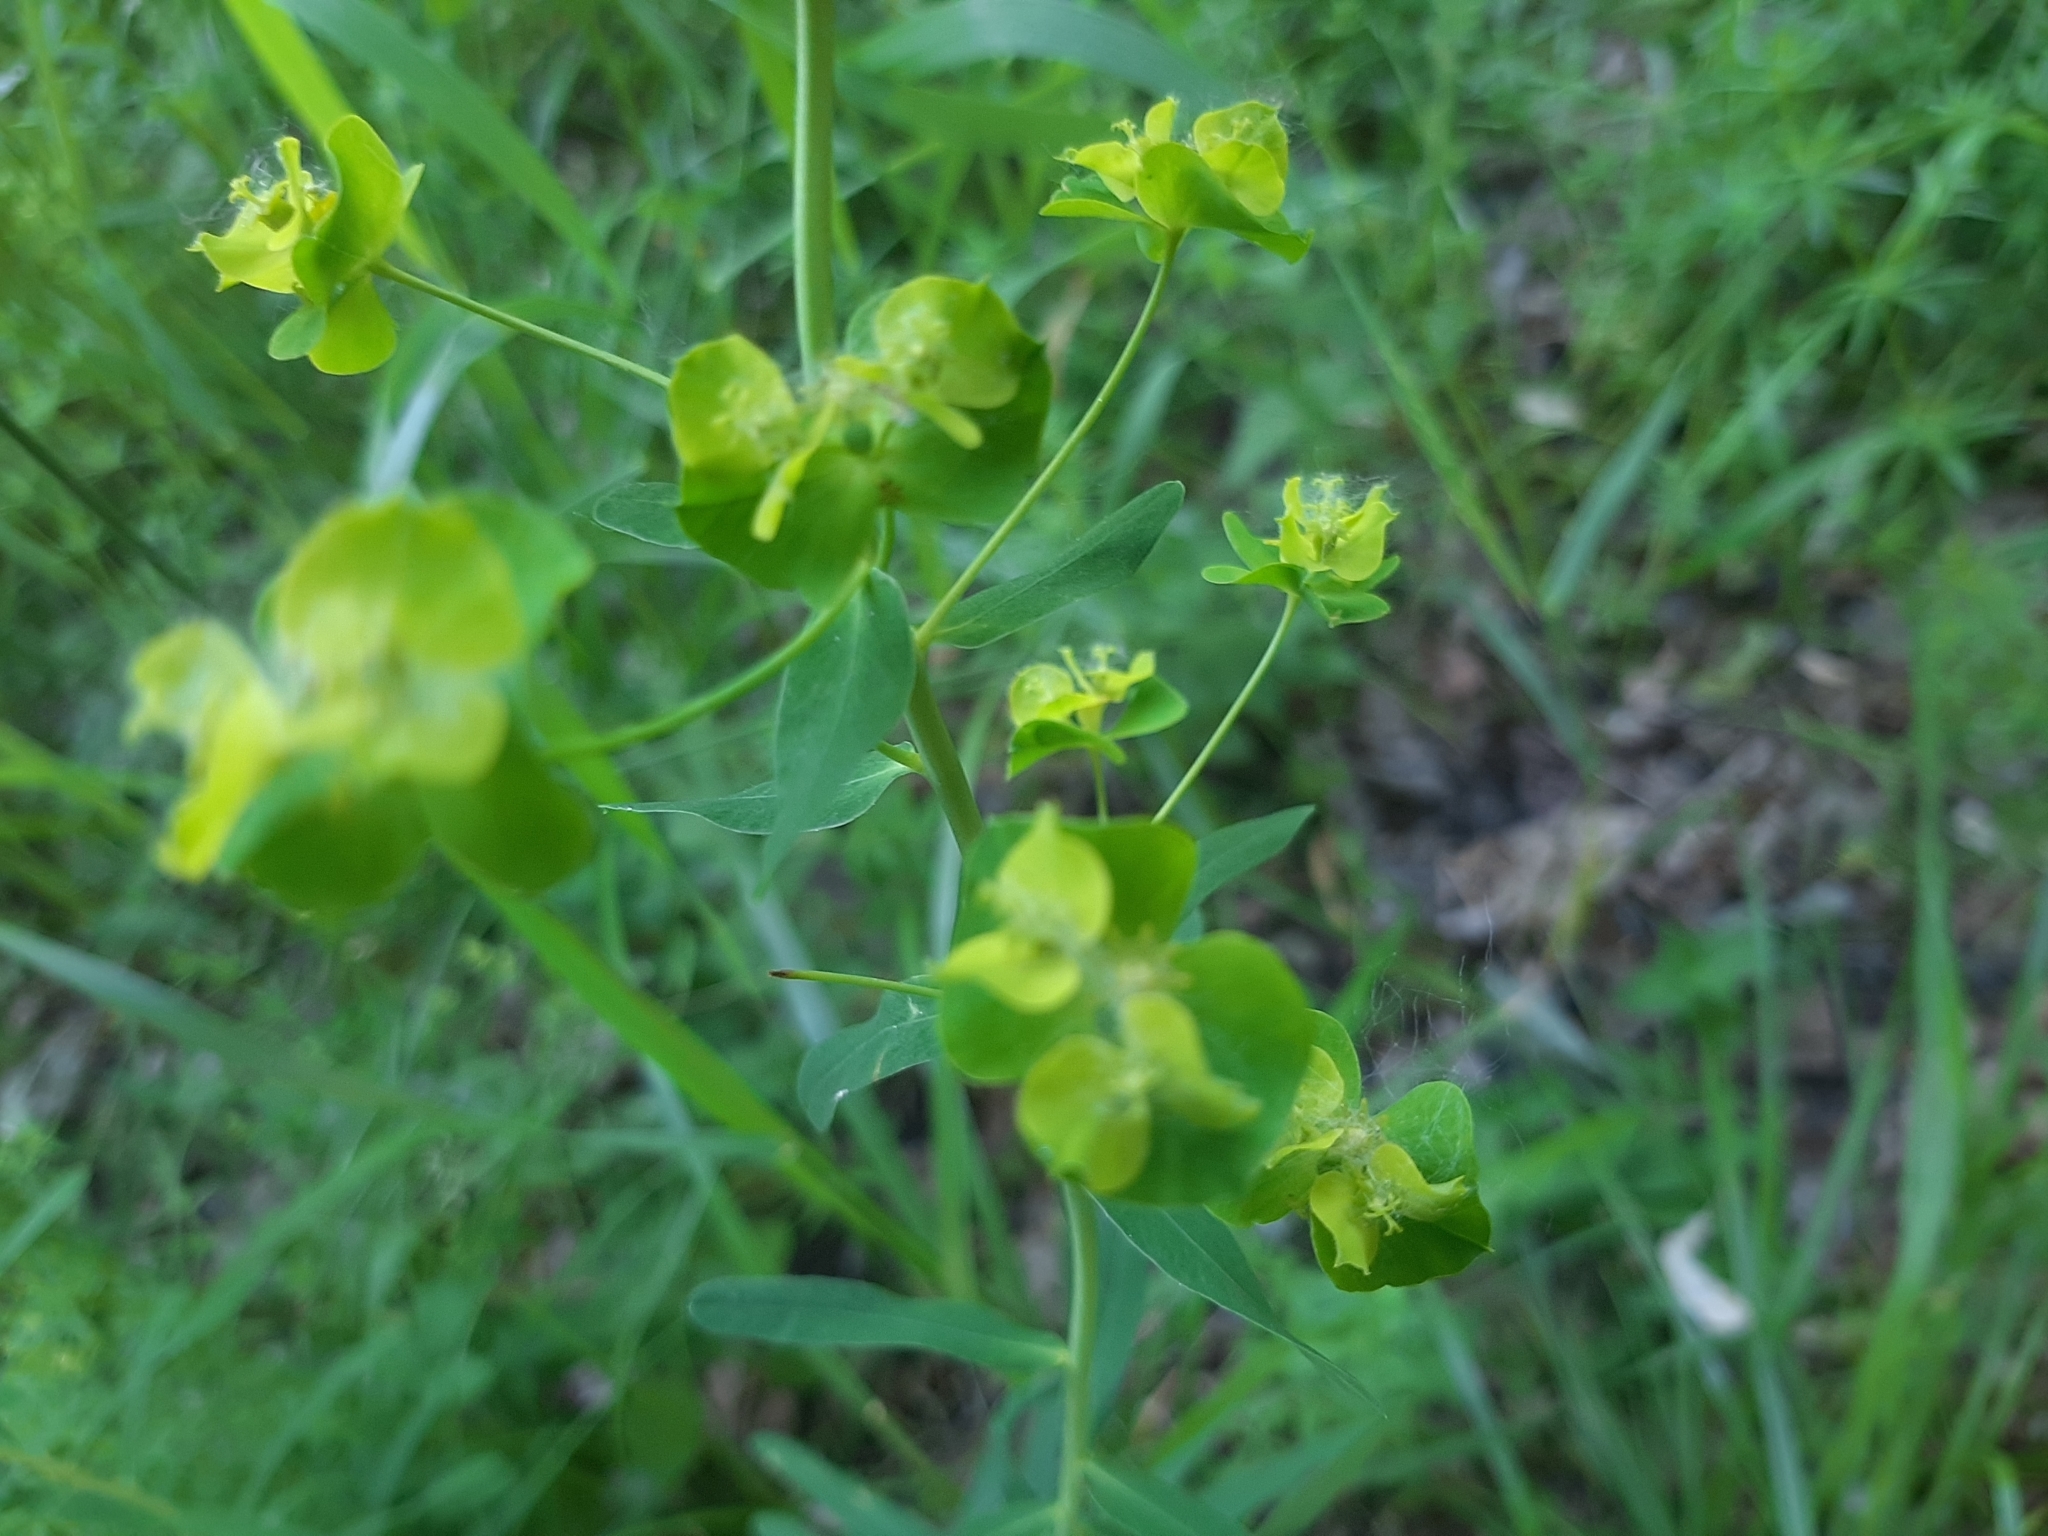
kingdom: Plantae
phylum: Tracheophyta
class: Magnoliopsida
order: Malpighiales
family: Euphorbiaceae
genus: Euphorbia
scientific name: Euphorbia virgata
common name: Leafy spurge
